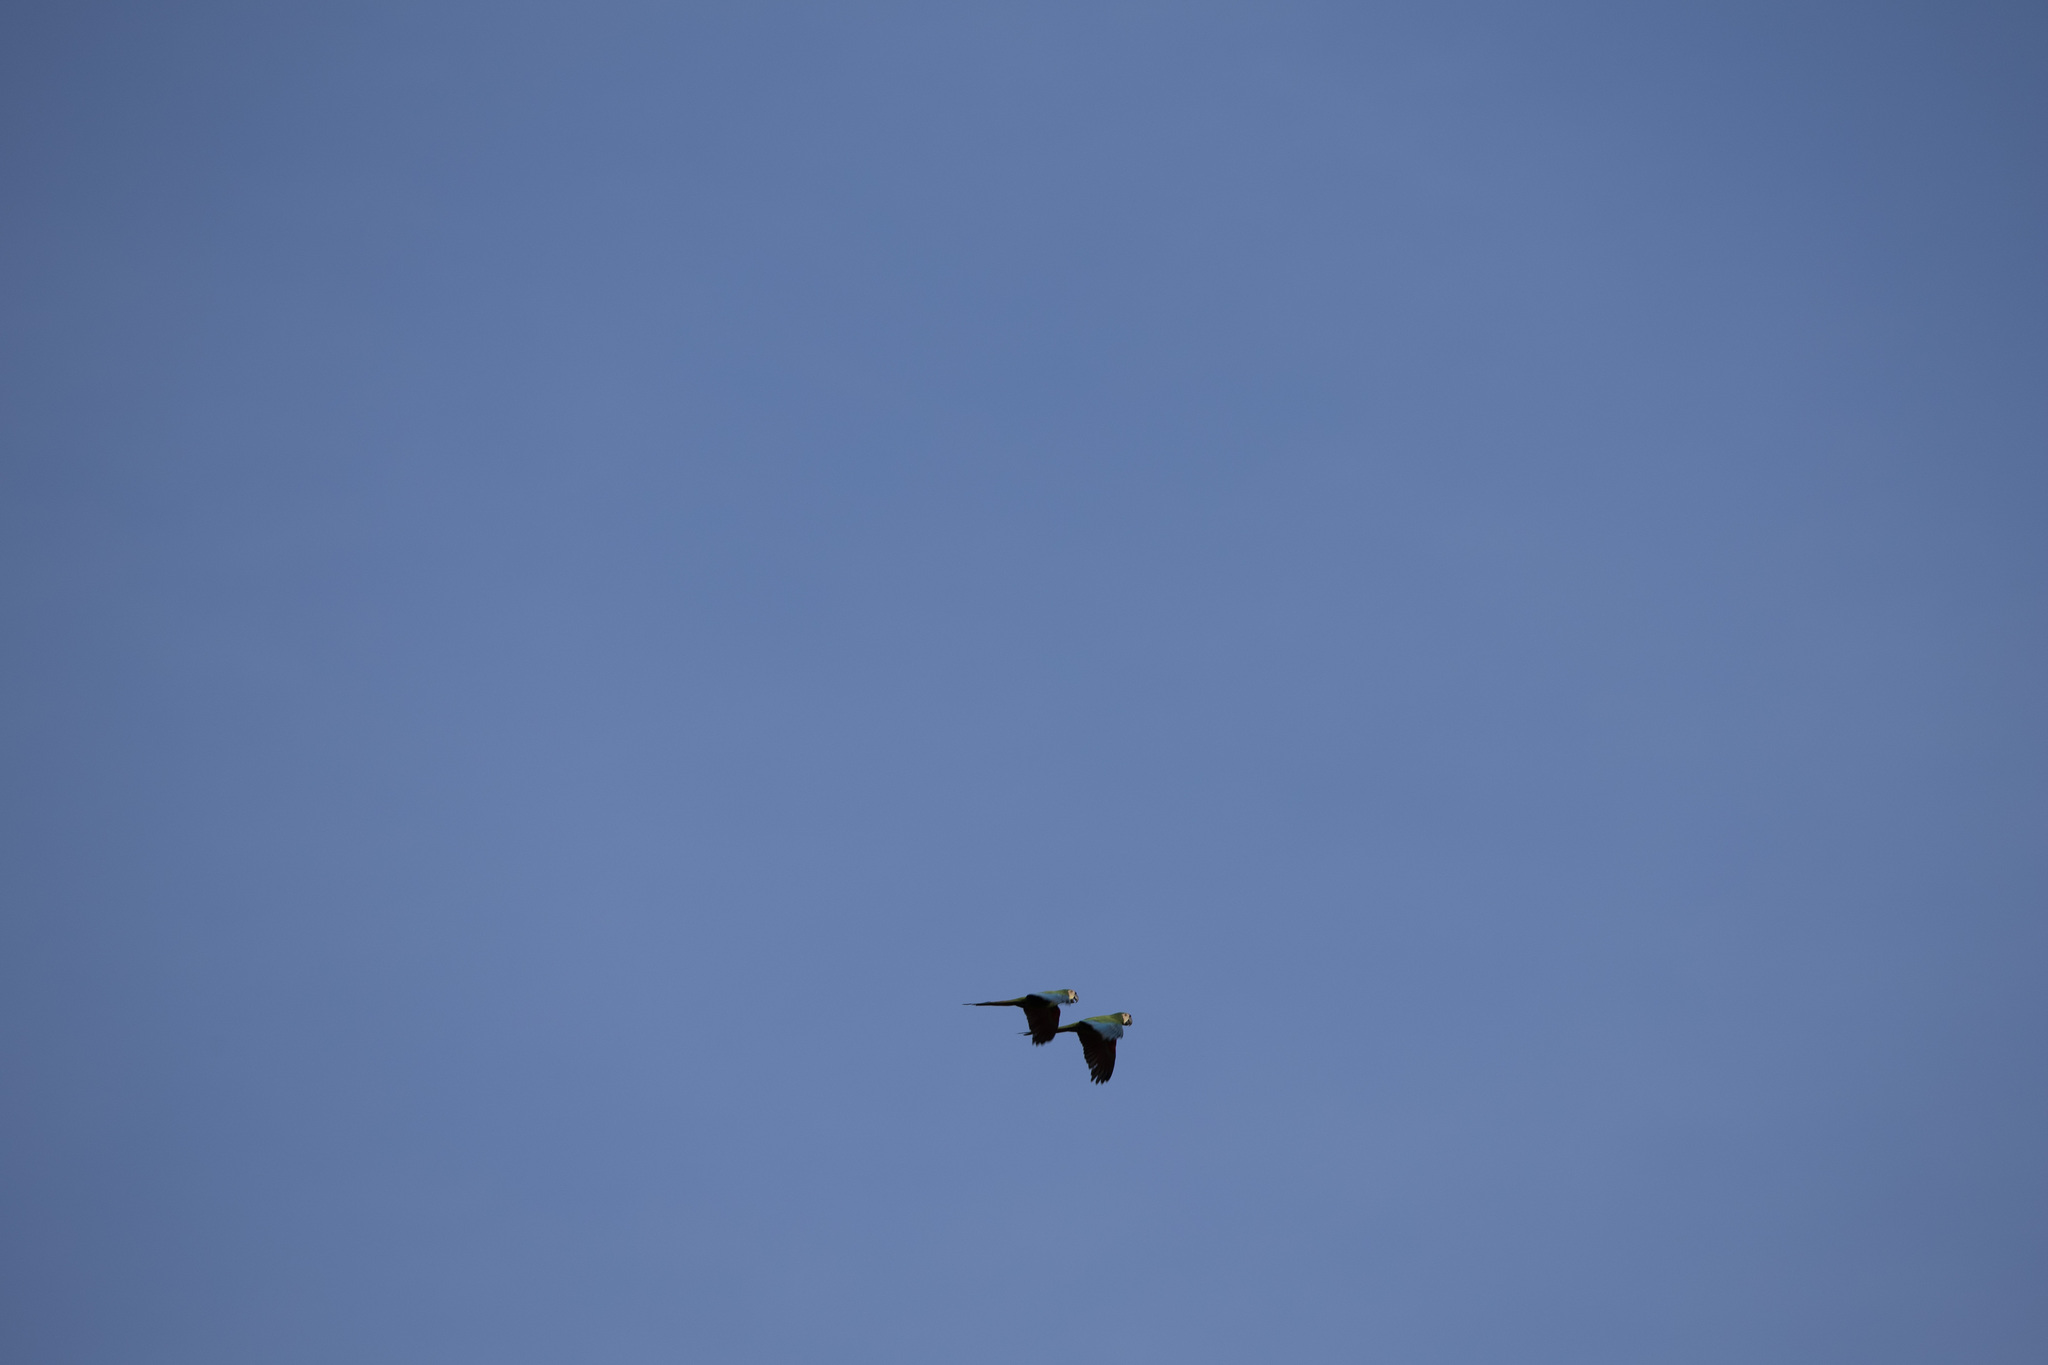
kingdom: Animalia
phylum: Chordata
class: Aves
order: Psittaciformes
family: Psittacidae
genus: Ara
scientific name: Ara severus
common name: Chestnut-fronted macaw
